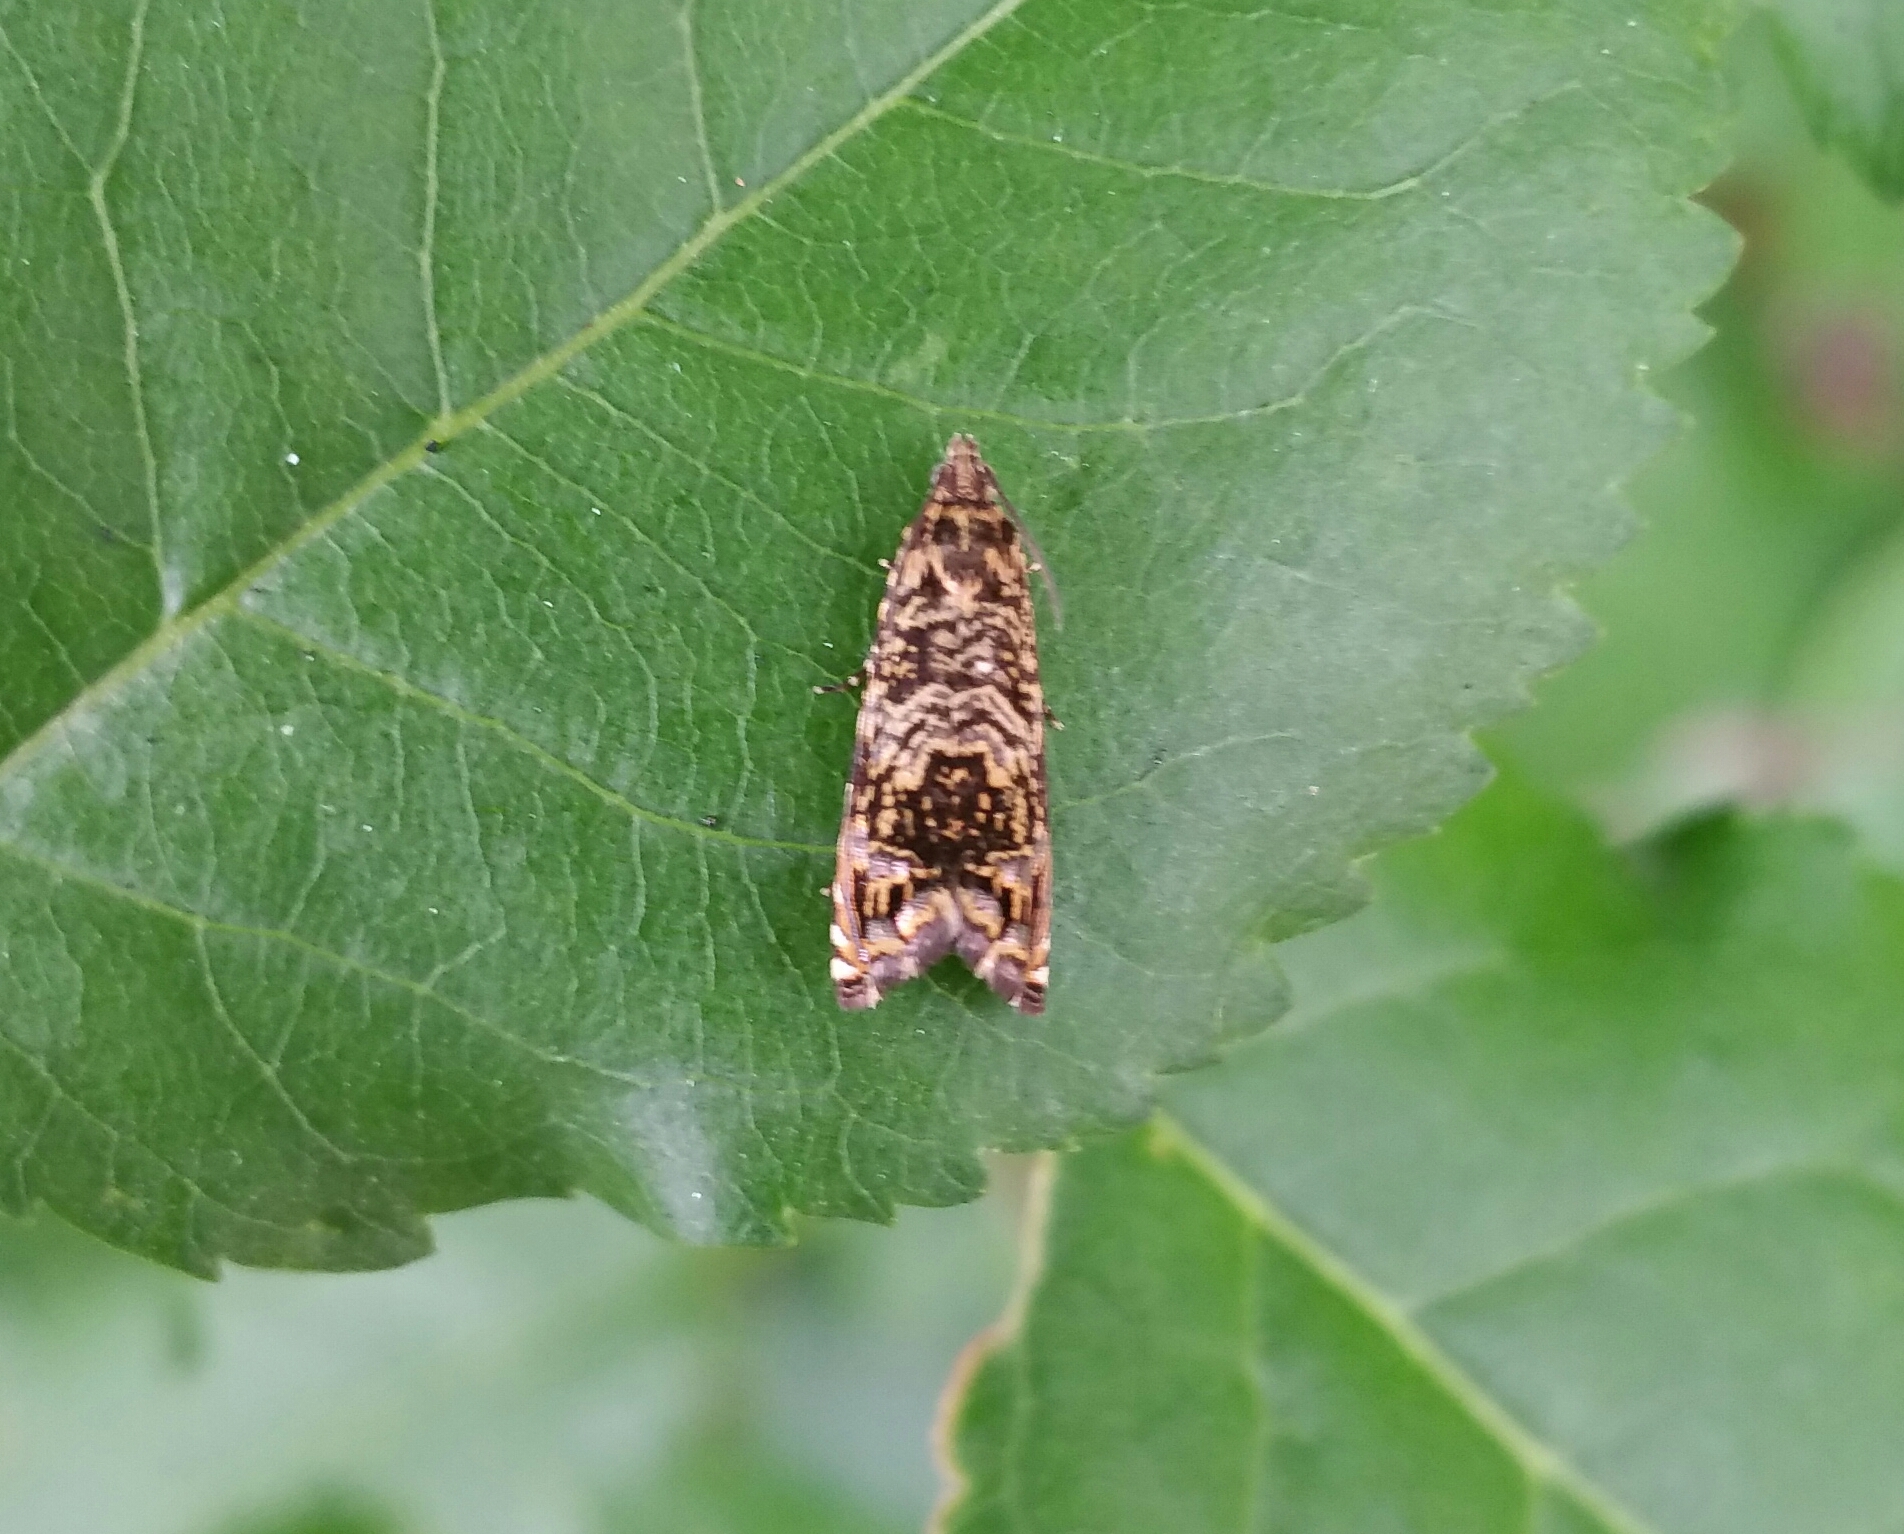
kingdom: Animalia
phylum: Arthropoda
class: Insecta
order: Lepidoptera
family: Tortricidae
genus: Enarmonia
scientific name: Enarmonia formosana
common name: Cherry bark tortrix
